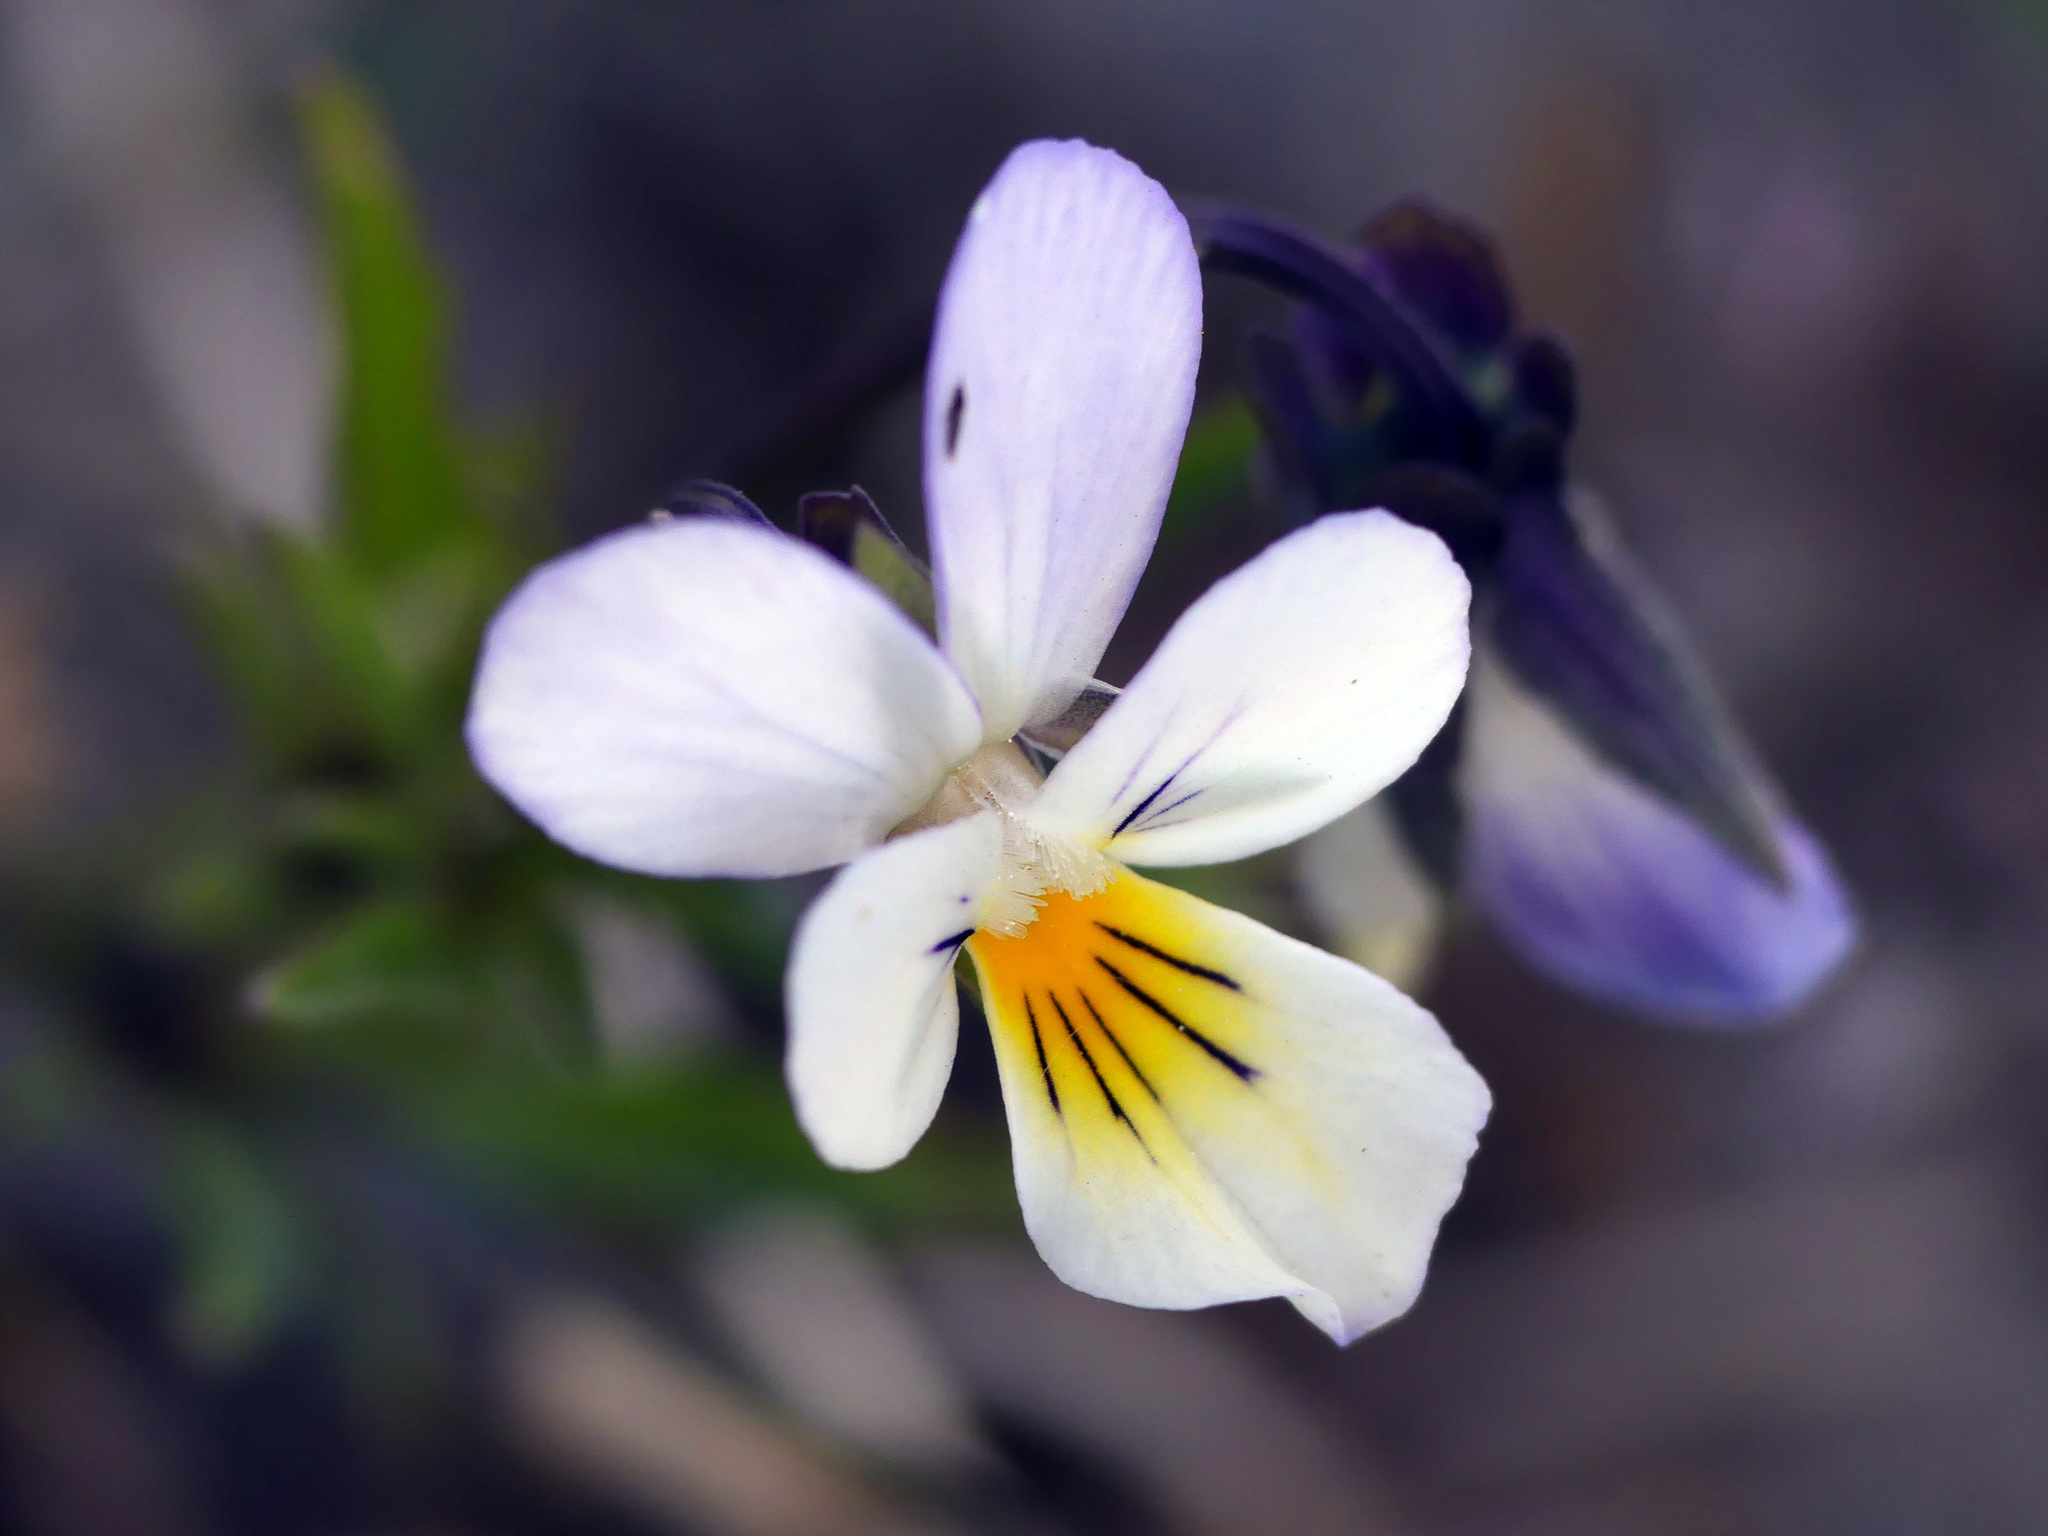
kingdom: Plantae
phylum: Tracheophyta
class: Magnoliopsida
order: Malpighiales
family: Violaceae
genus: Viola
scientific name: Viola arvensis
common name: Field pansy
